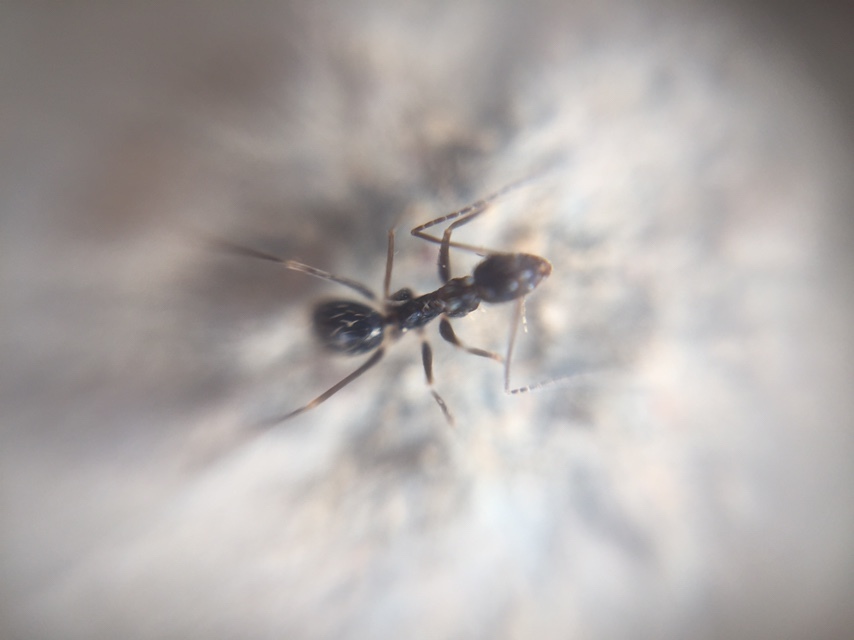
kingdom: Animalia
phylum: Arthropoda
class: Insecta
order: Hymenoptera
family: Formicidae
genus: Paratrechina
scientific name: Paratrechina longicornis
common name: Longhorned crazy ant
